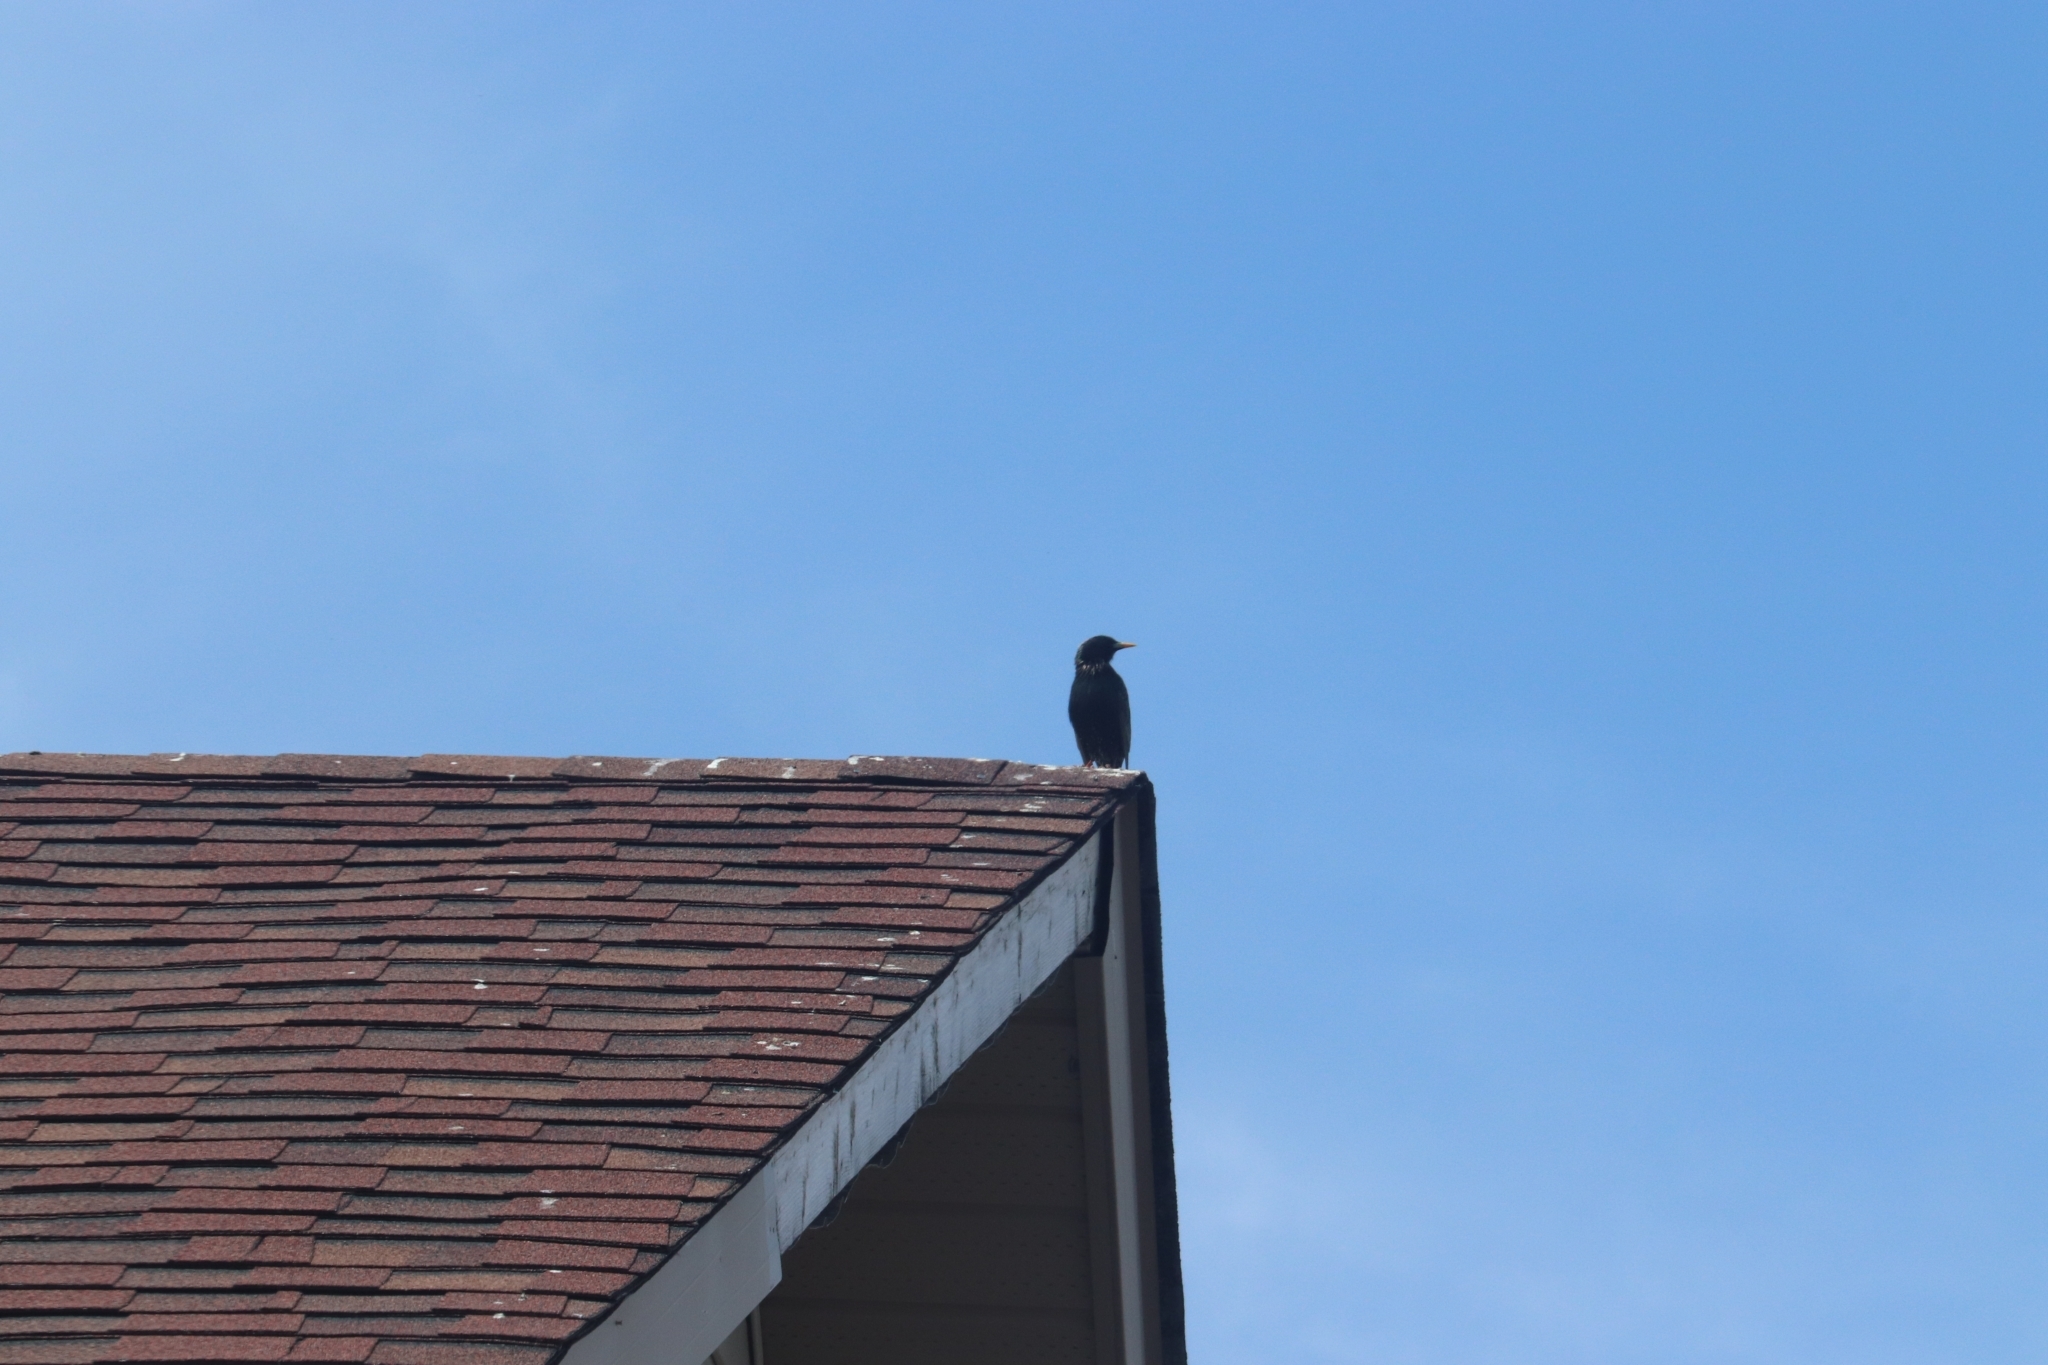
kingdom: Animalia
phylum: Chordata
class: Aves
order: Passeriformes
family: Sturnidae
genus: Sturnus
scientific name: Sturnus vulgaris
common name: Common starling
